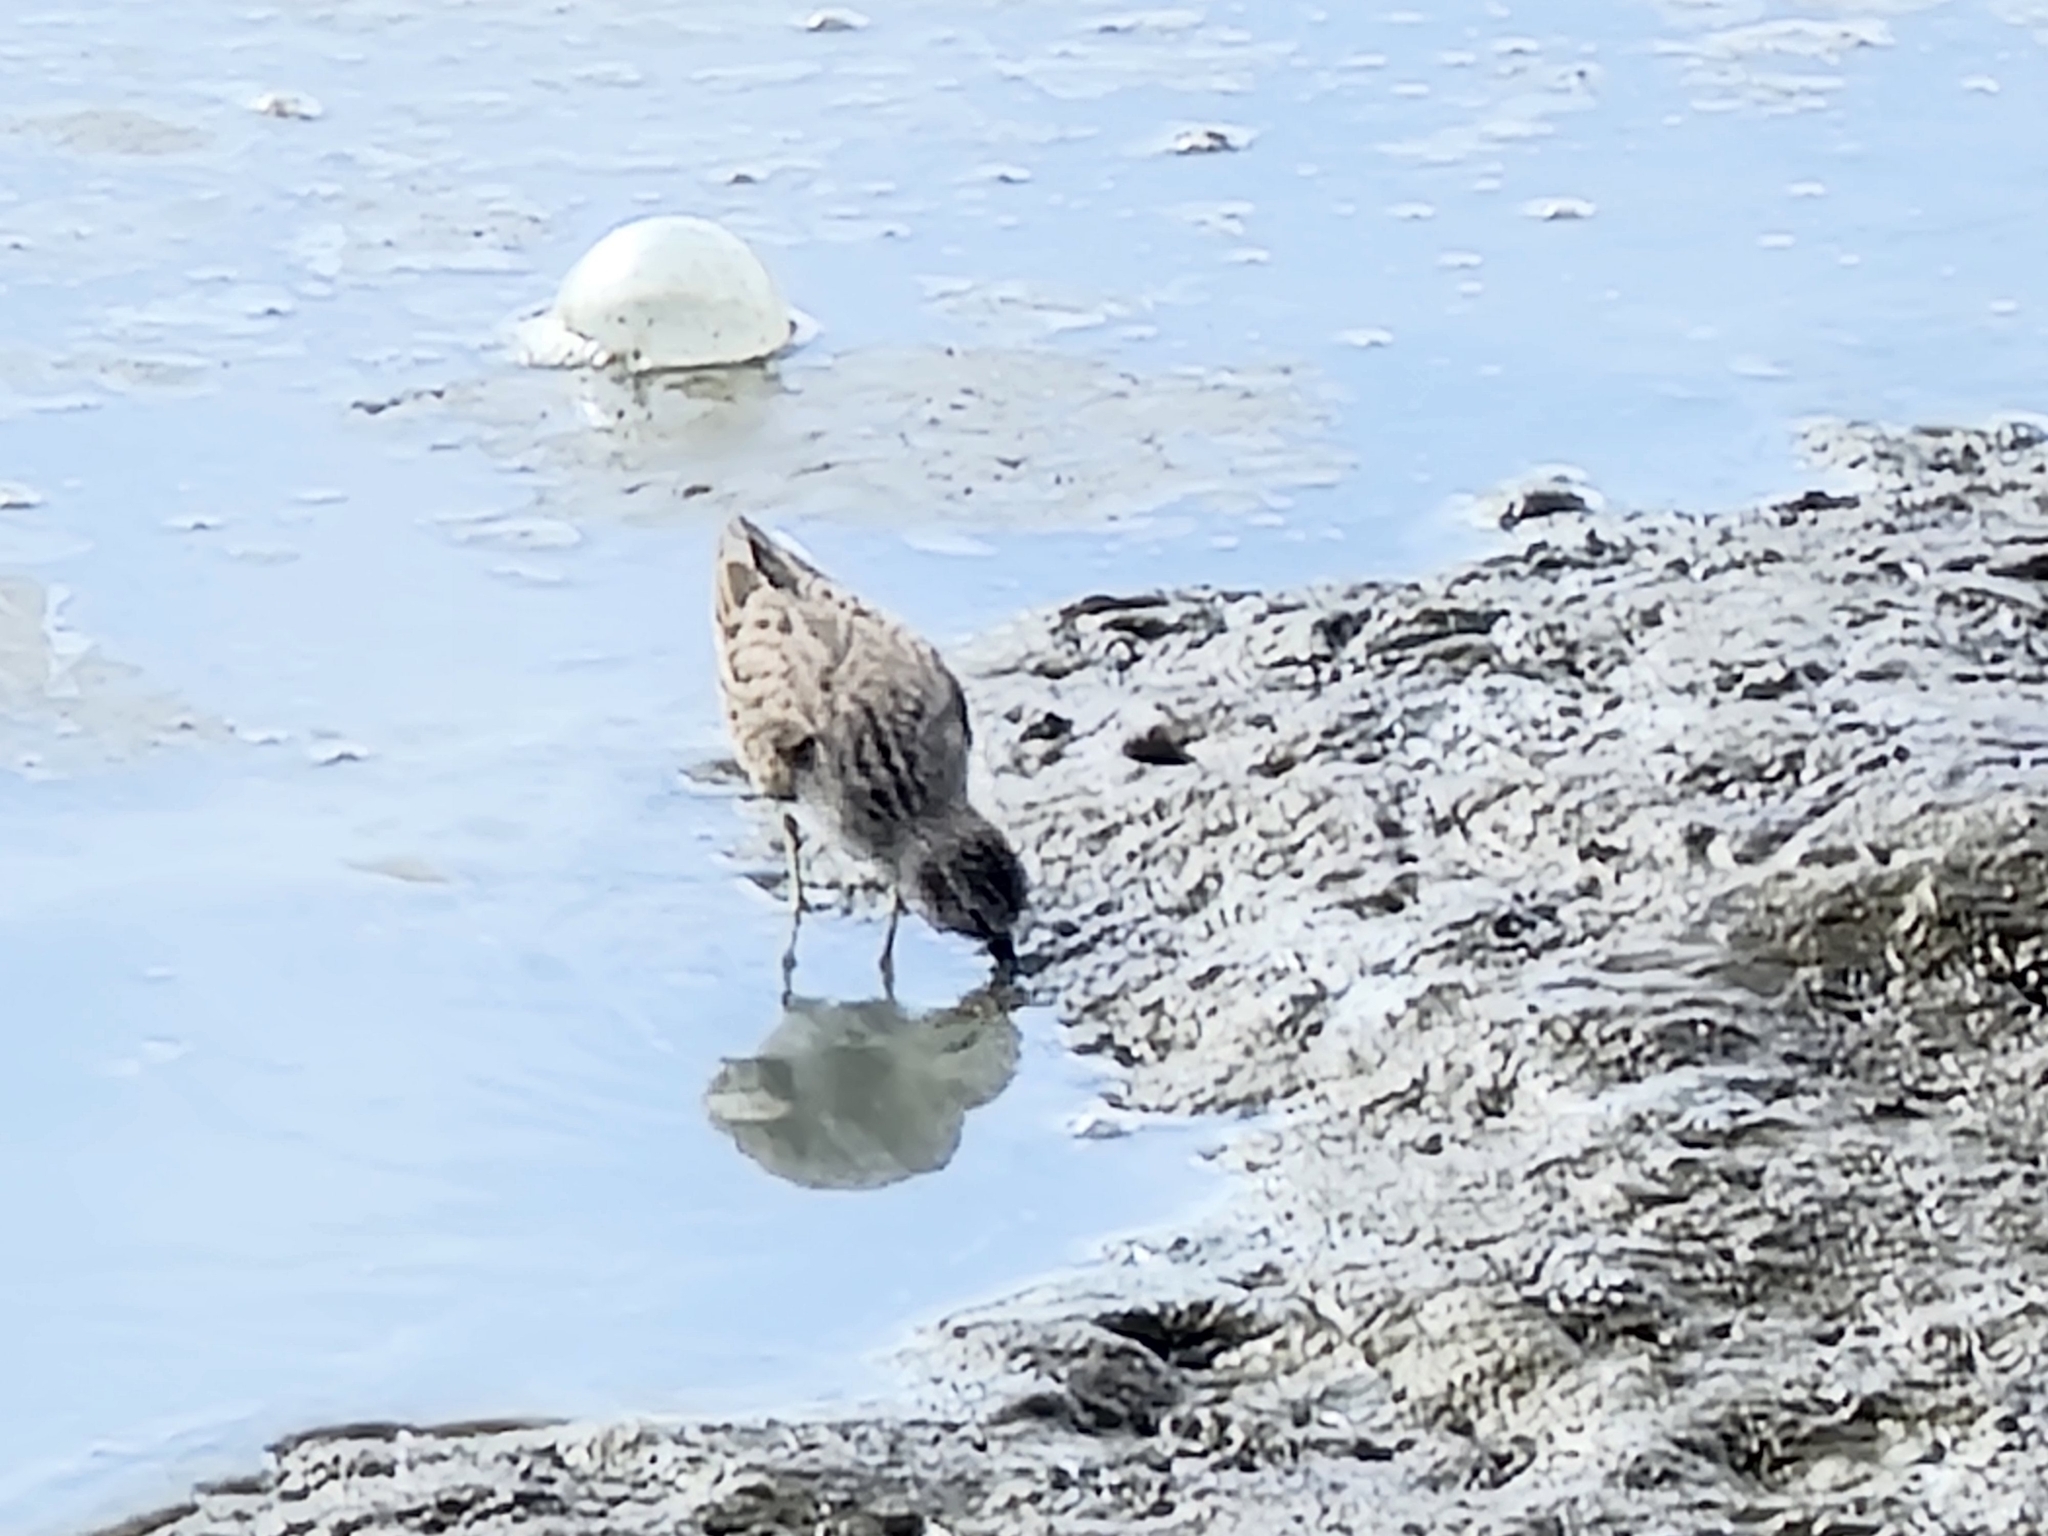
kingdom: Animalia
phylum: Chordata
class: Aves
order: Charadriiformes
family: Scolopacidae
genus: Calidris
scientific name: Calidris minutilla
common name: Least sandpiper
